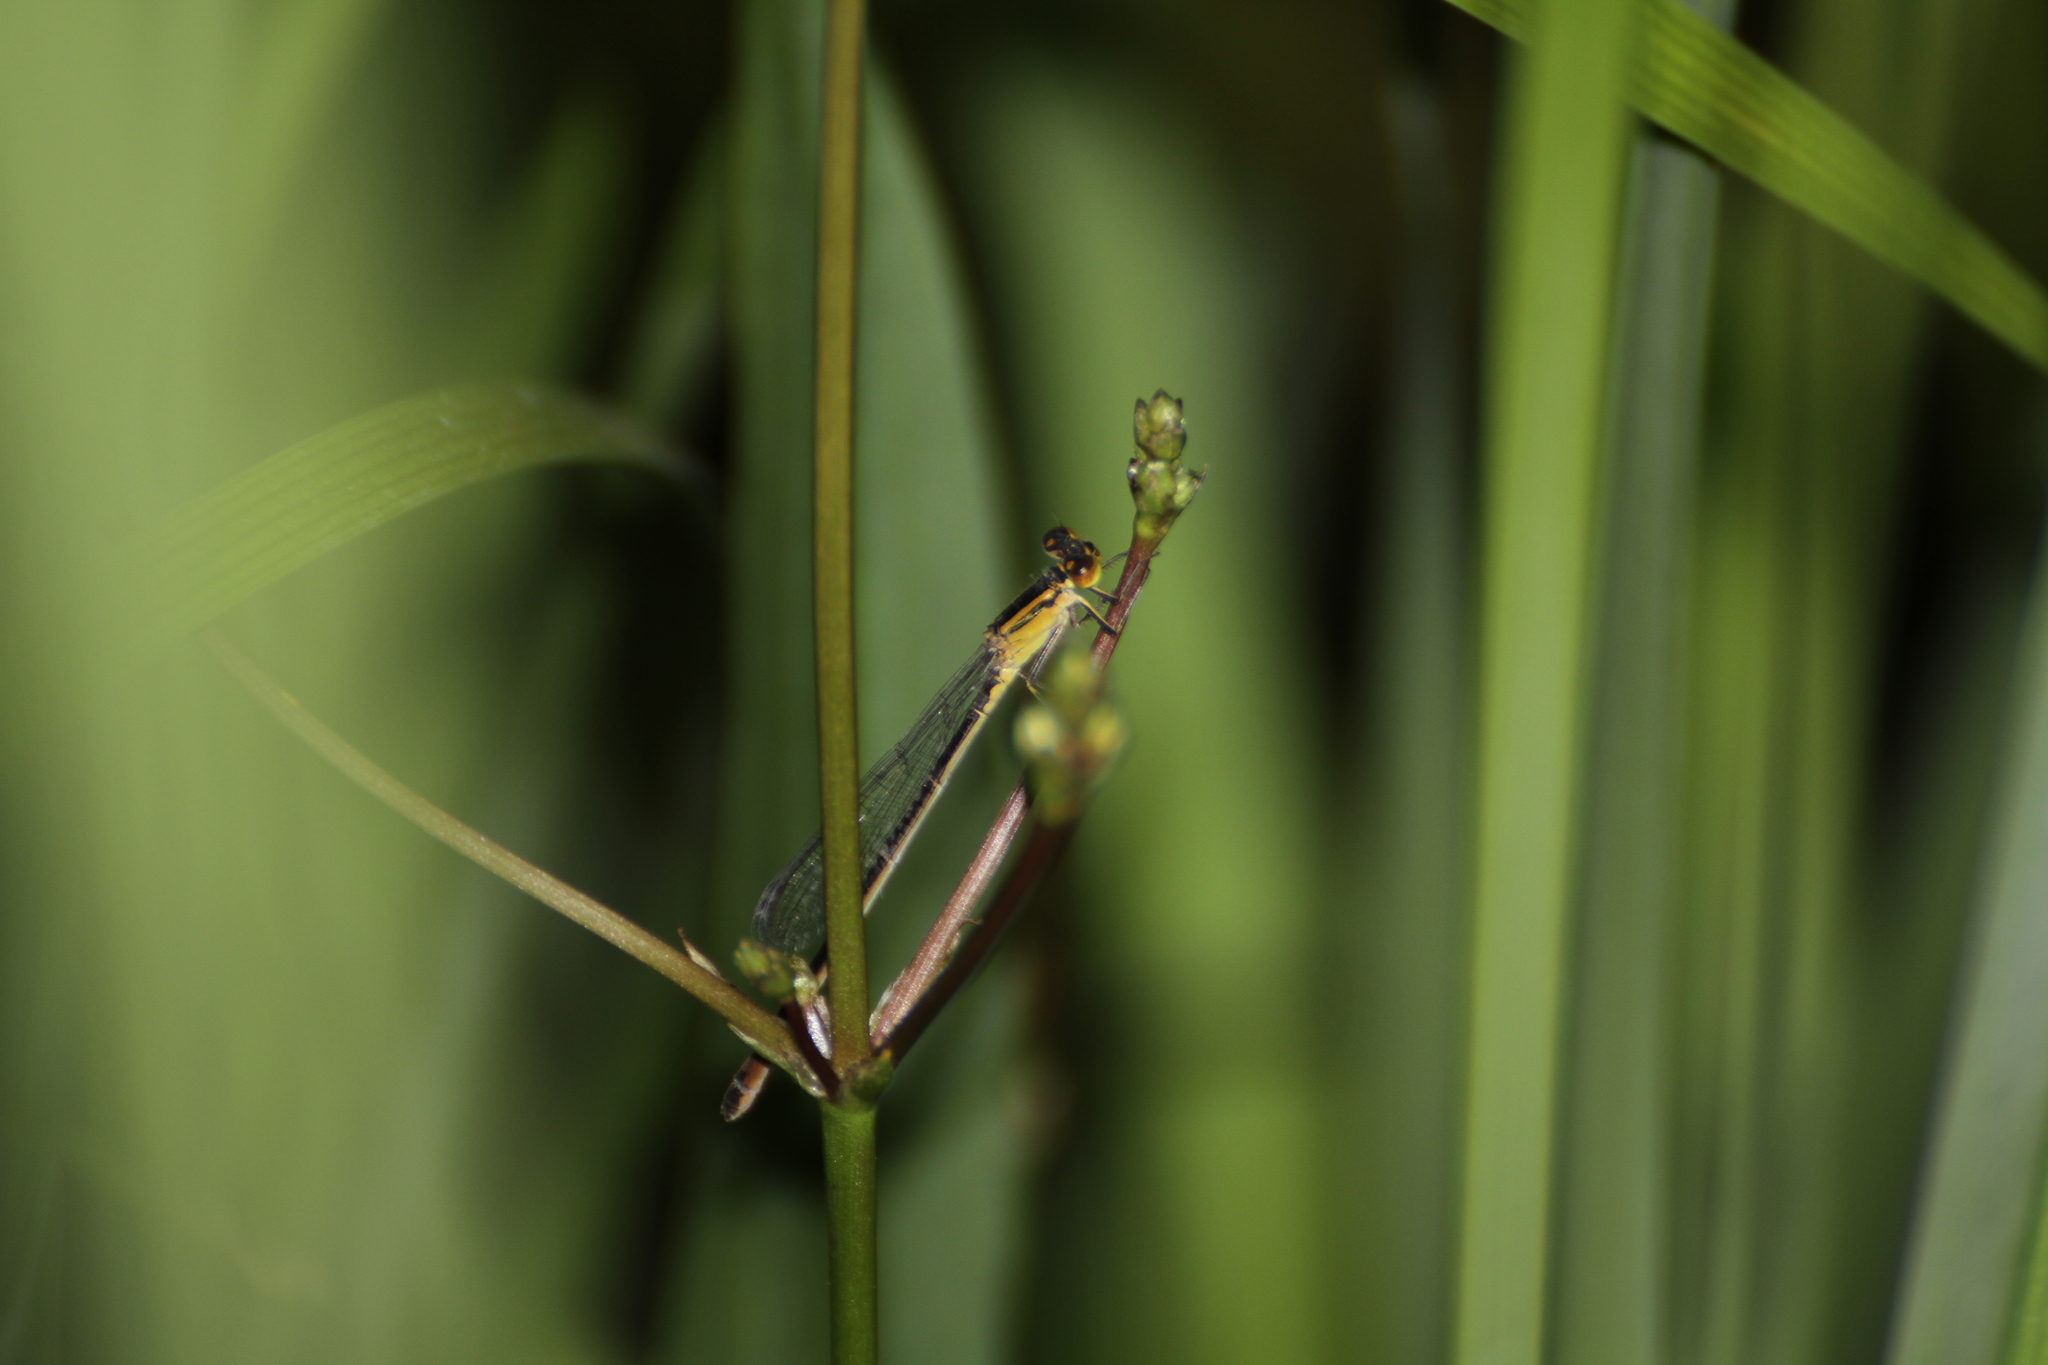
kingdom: Animalia
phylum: Arthropoda
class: Insecta
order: Odonata
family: Coenagrionidae
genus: Ischnura
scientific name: Ischnura elegans
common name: Blue-tailed damselfly
